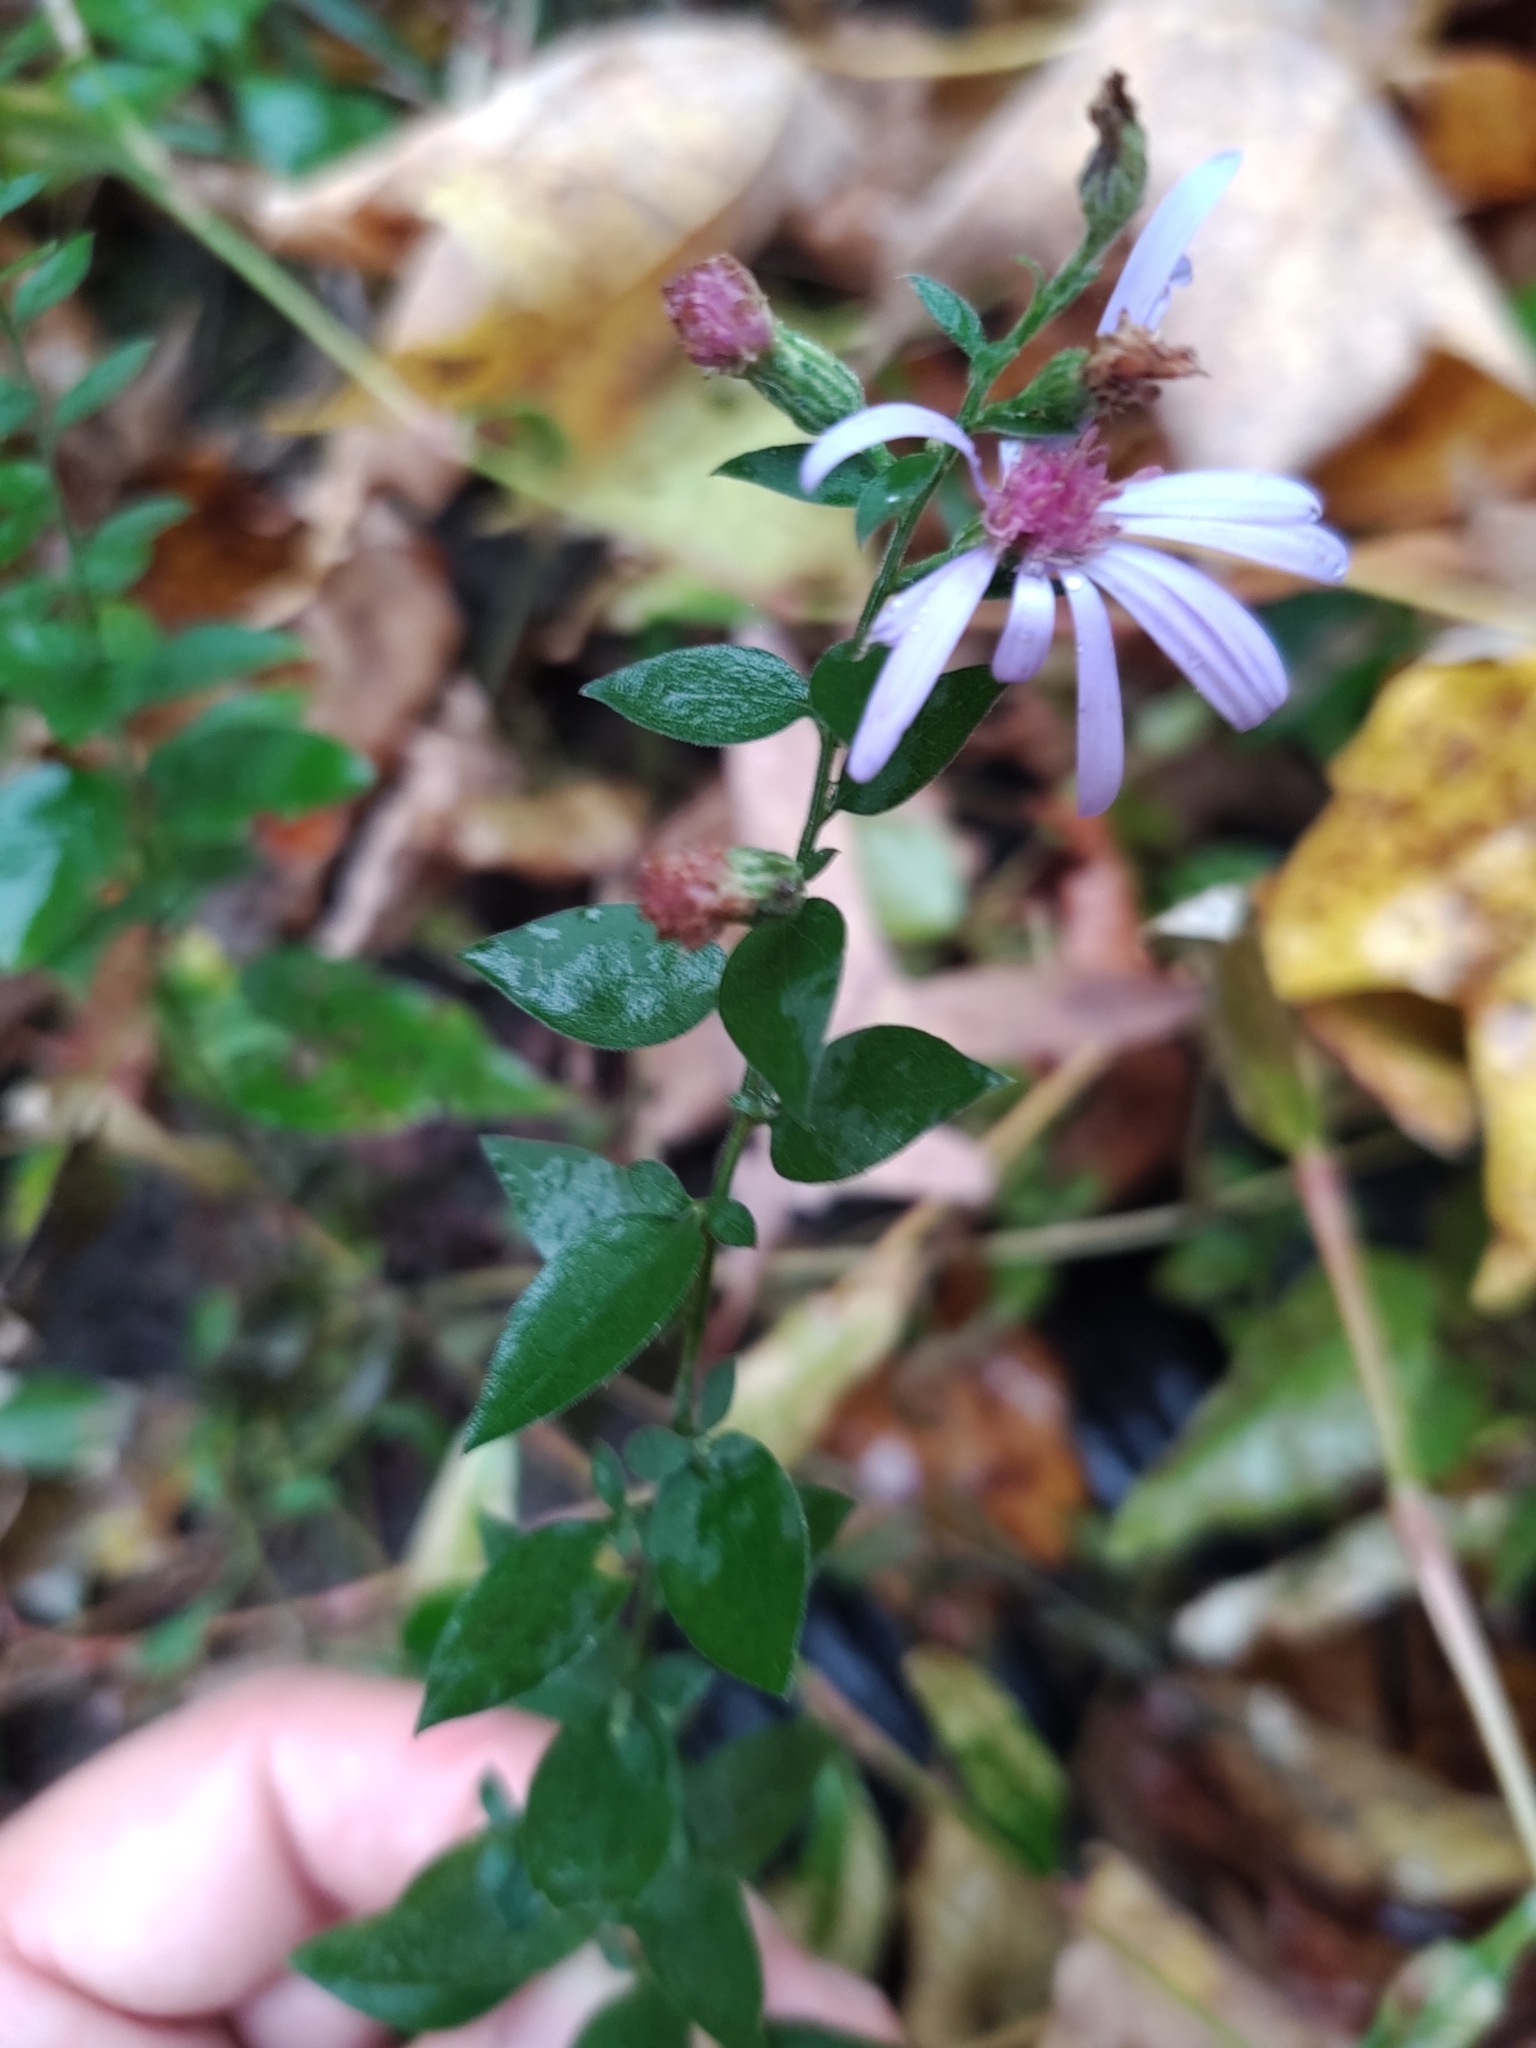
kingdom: Plantae
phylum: Tracheophyta
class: Magnoliopsida
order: Asterales
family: Asteraceae
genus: Symphyotrichum
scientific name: Symphyotrichum shortii
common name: Short's aster
